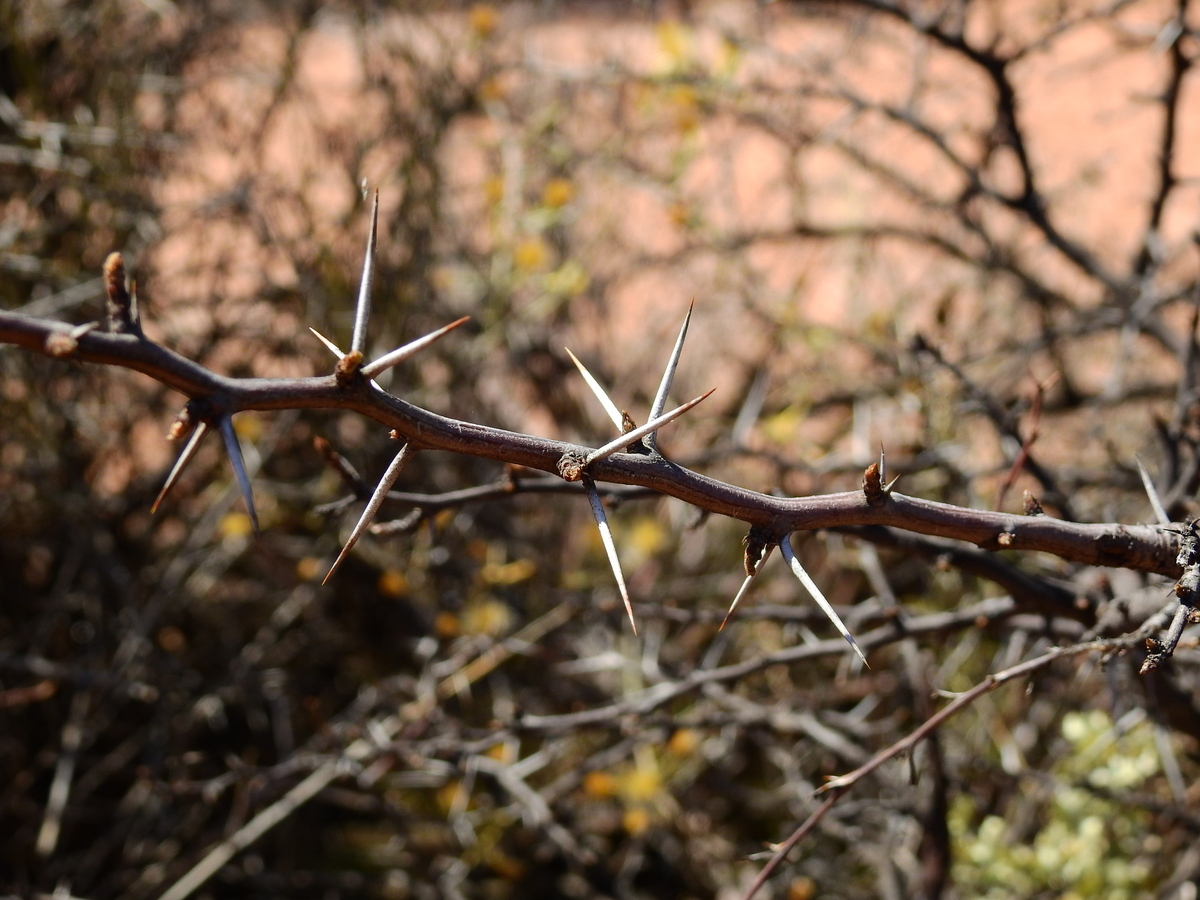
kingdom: Plantae
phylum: Tracheophyta
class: Magnoliopsida
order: Fabales
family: Fabaceae
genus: Prosopis
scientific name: Prosopis torquata
